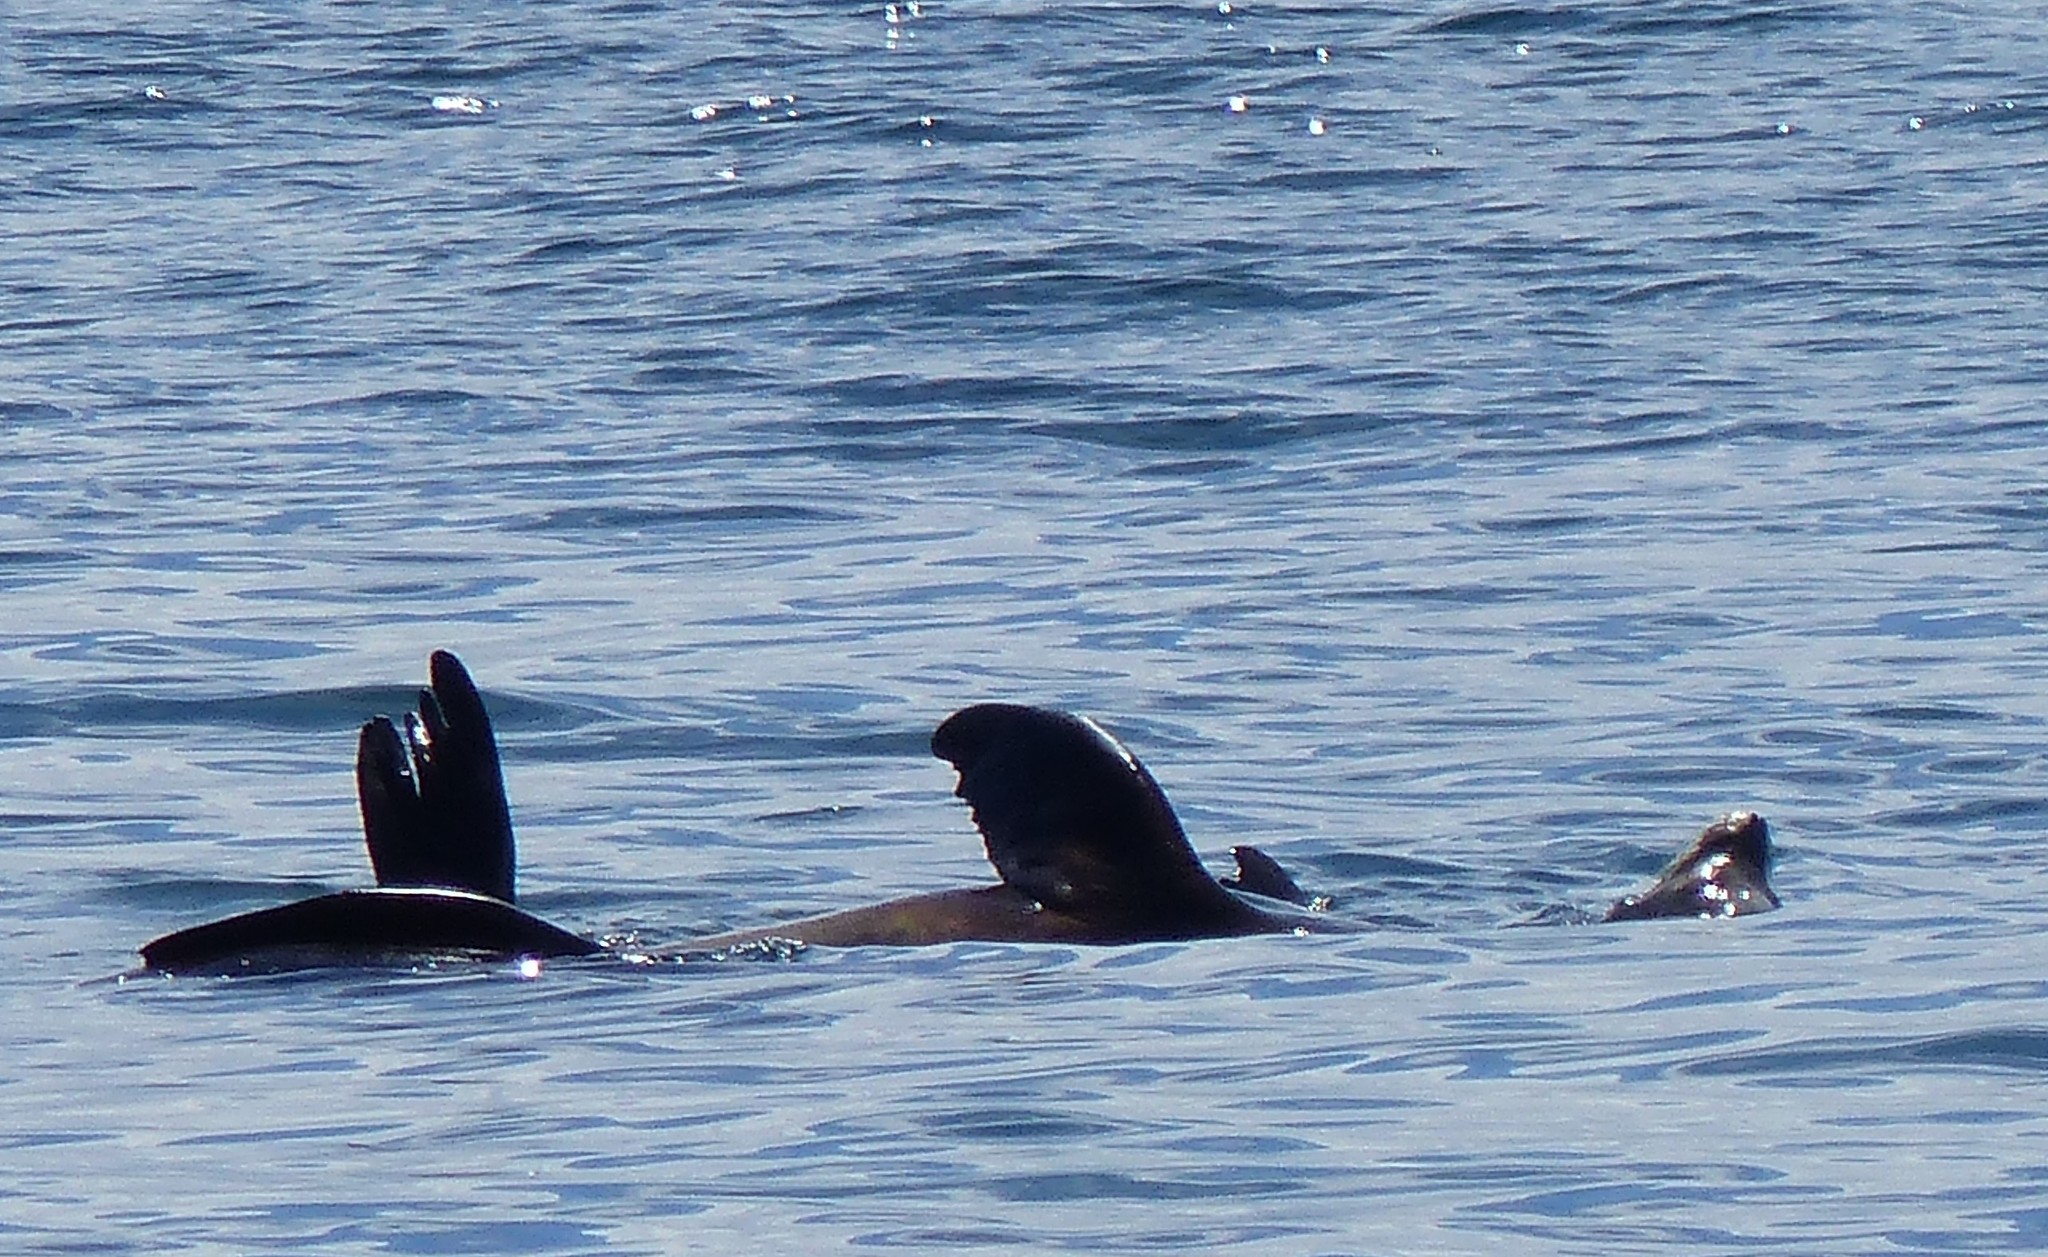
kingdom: Animalia
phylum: Chordata
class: Mammalia
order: Carnivora
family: Otariidae
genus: Zalophus
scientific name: Zalophus californianus
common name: California sea lion
